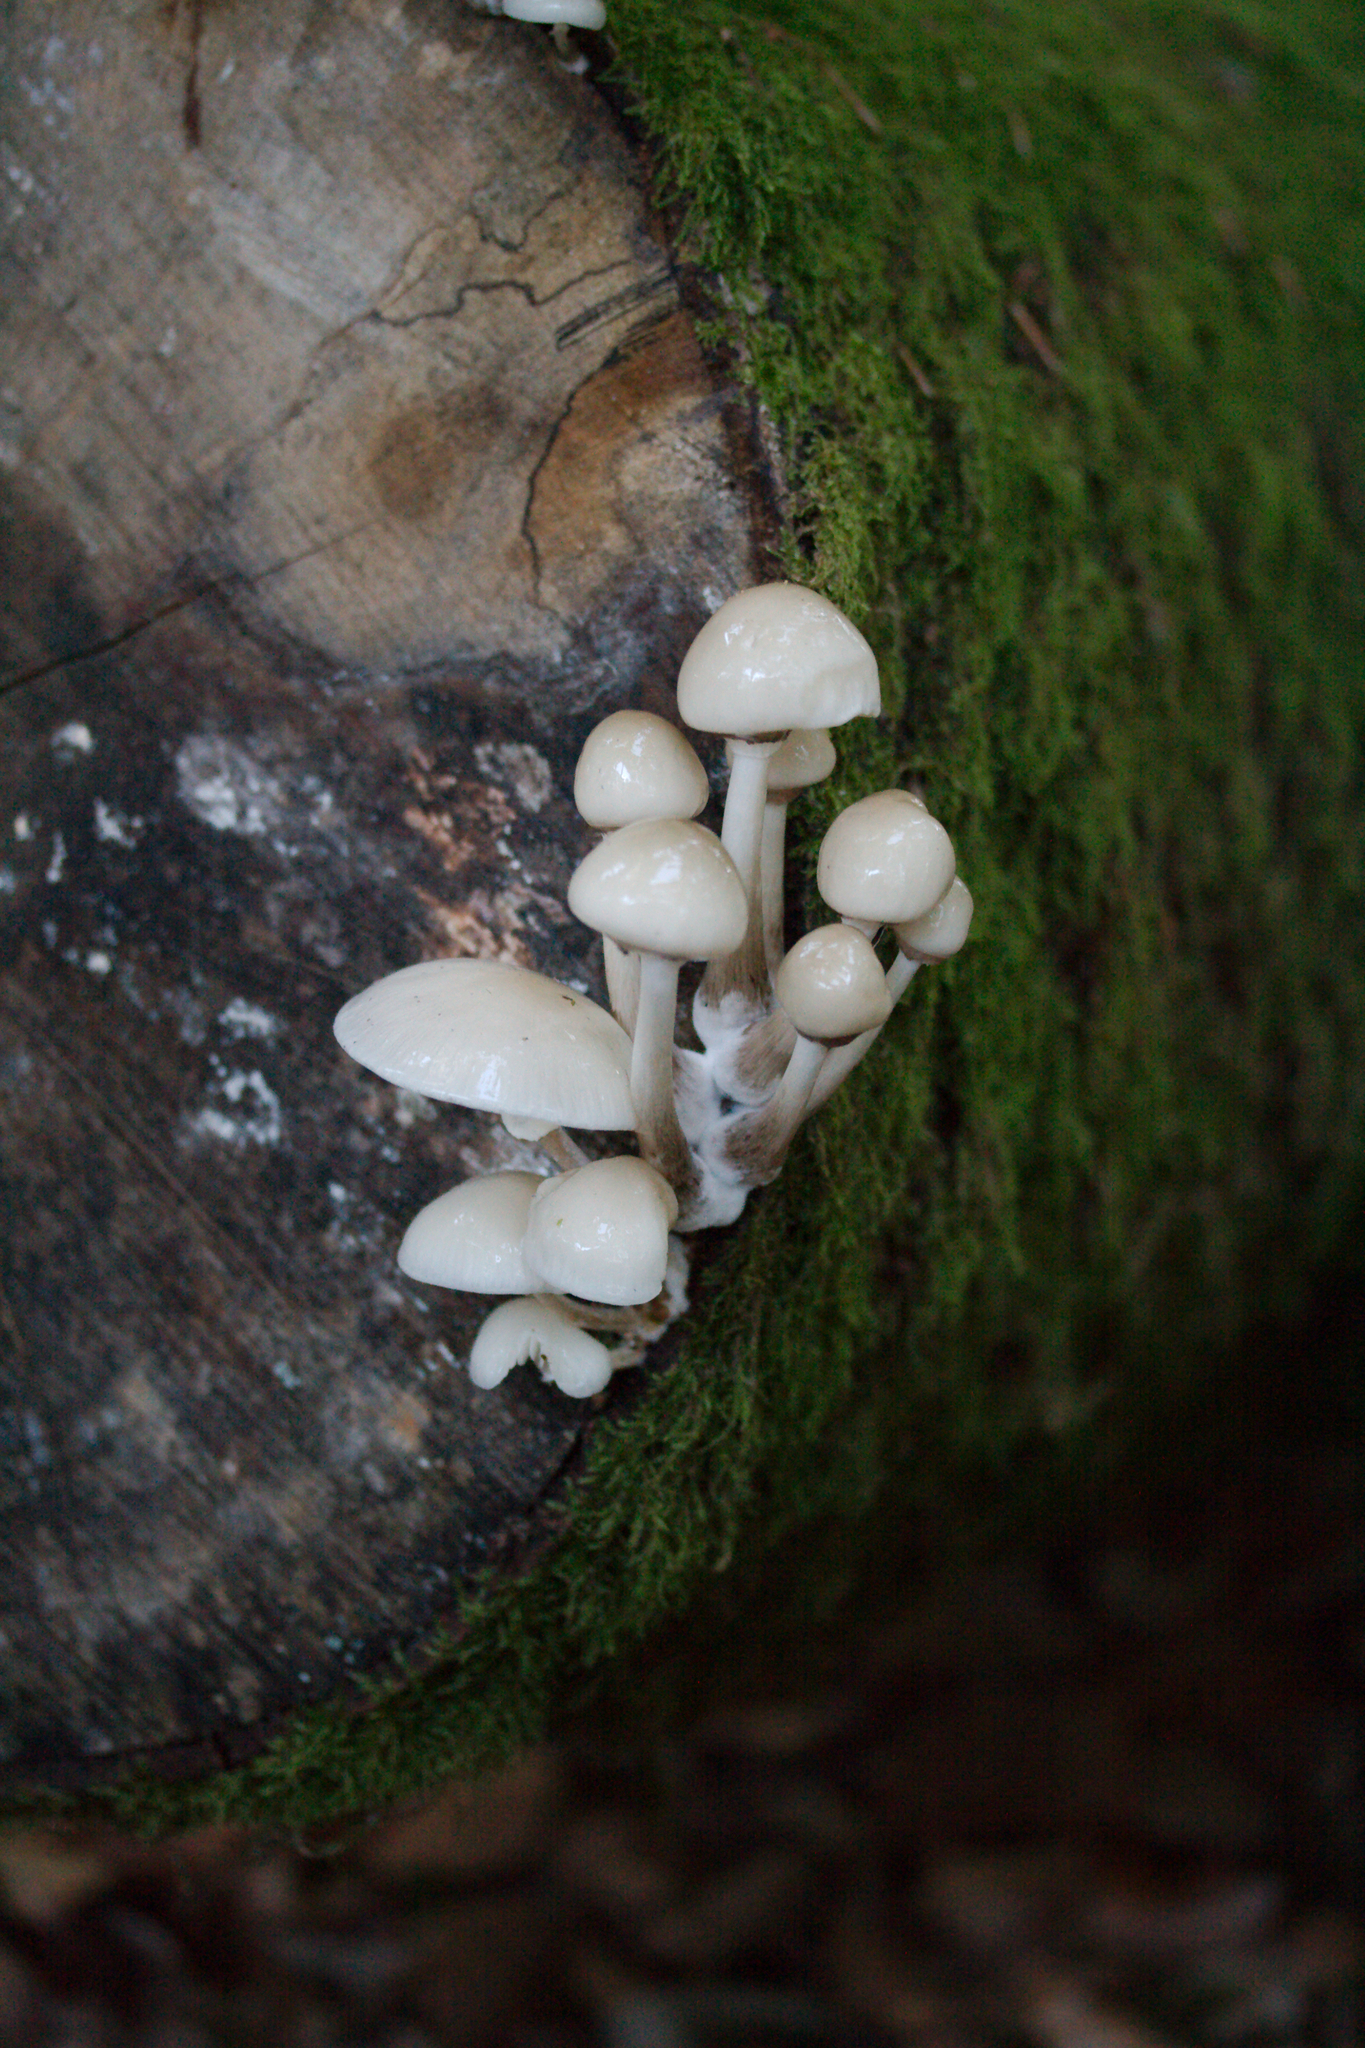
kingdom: Fungi
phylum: Basidiomycota
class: Agaricomycetes
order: Agaricales
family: Physalacriaceae
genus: Mucidula
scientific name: Mucidula mucida
